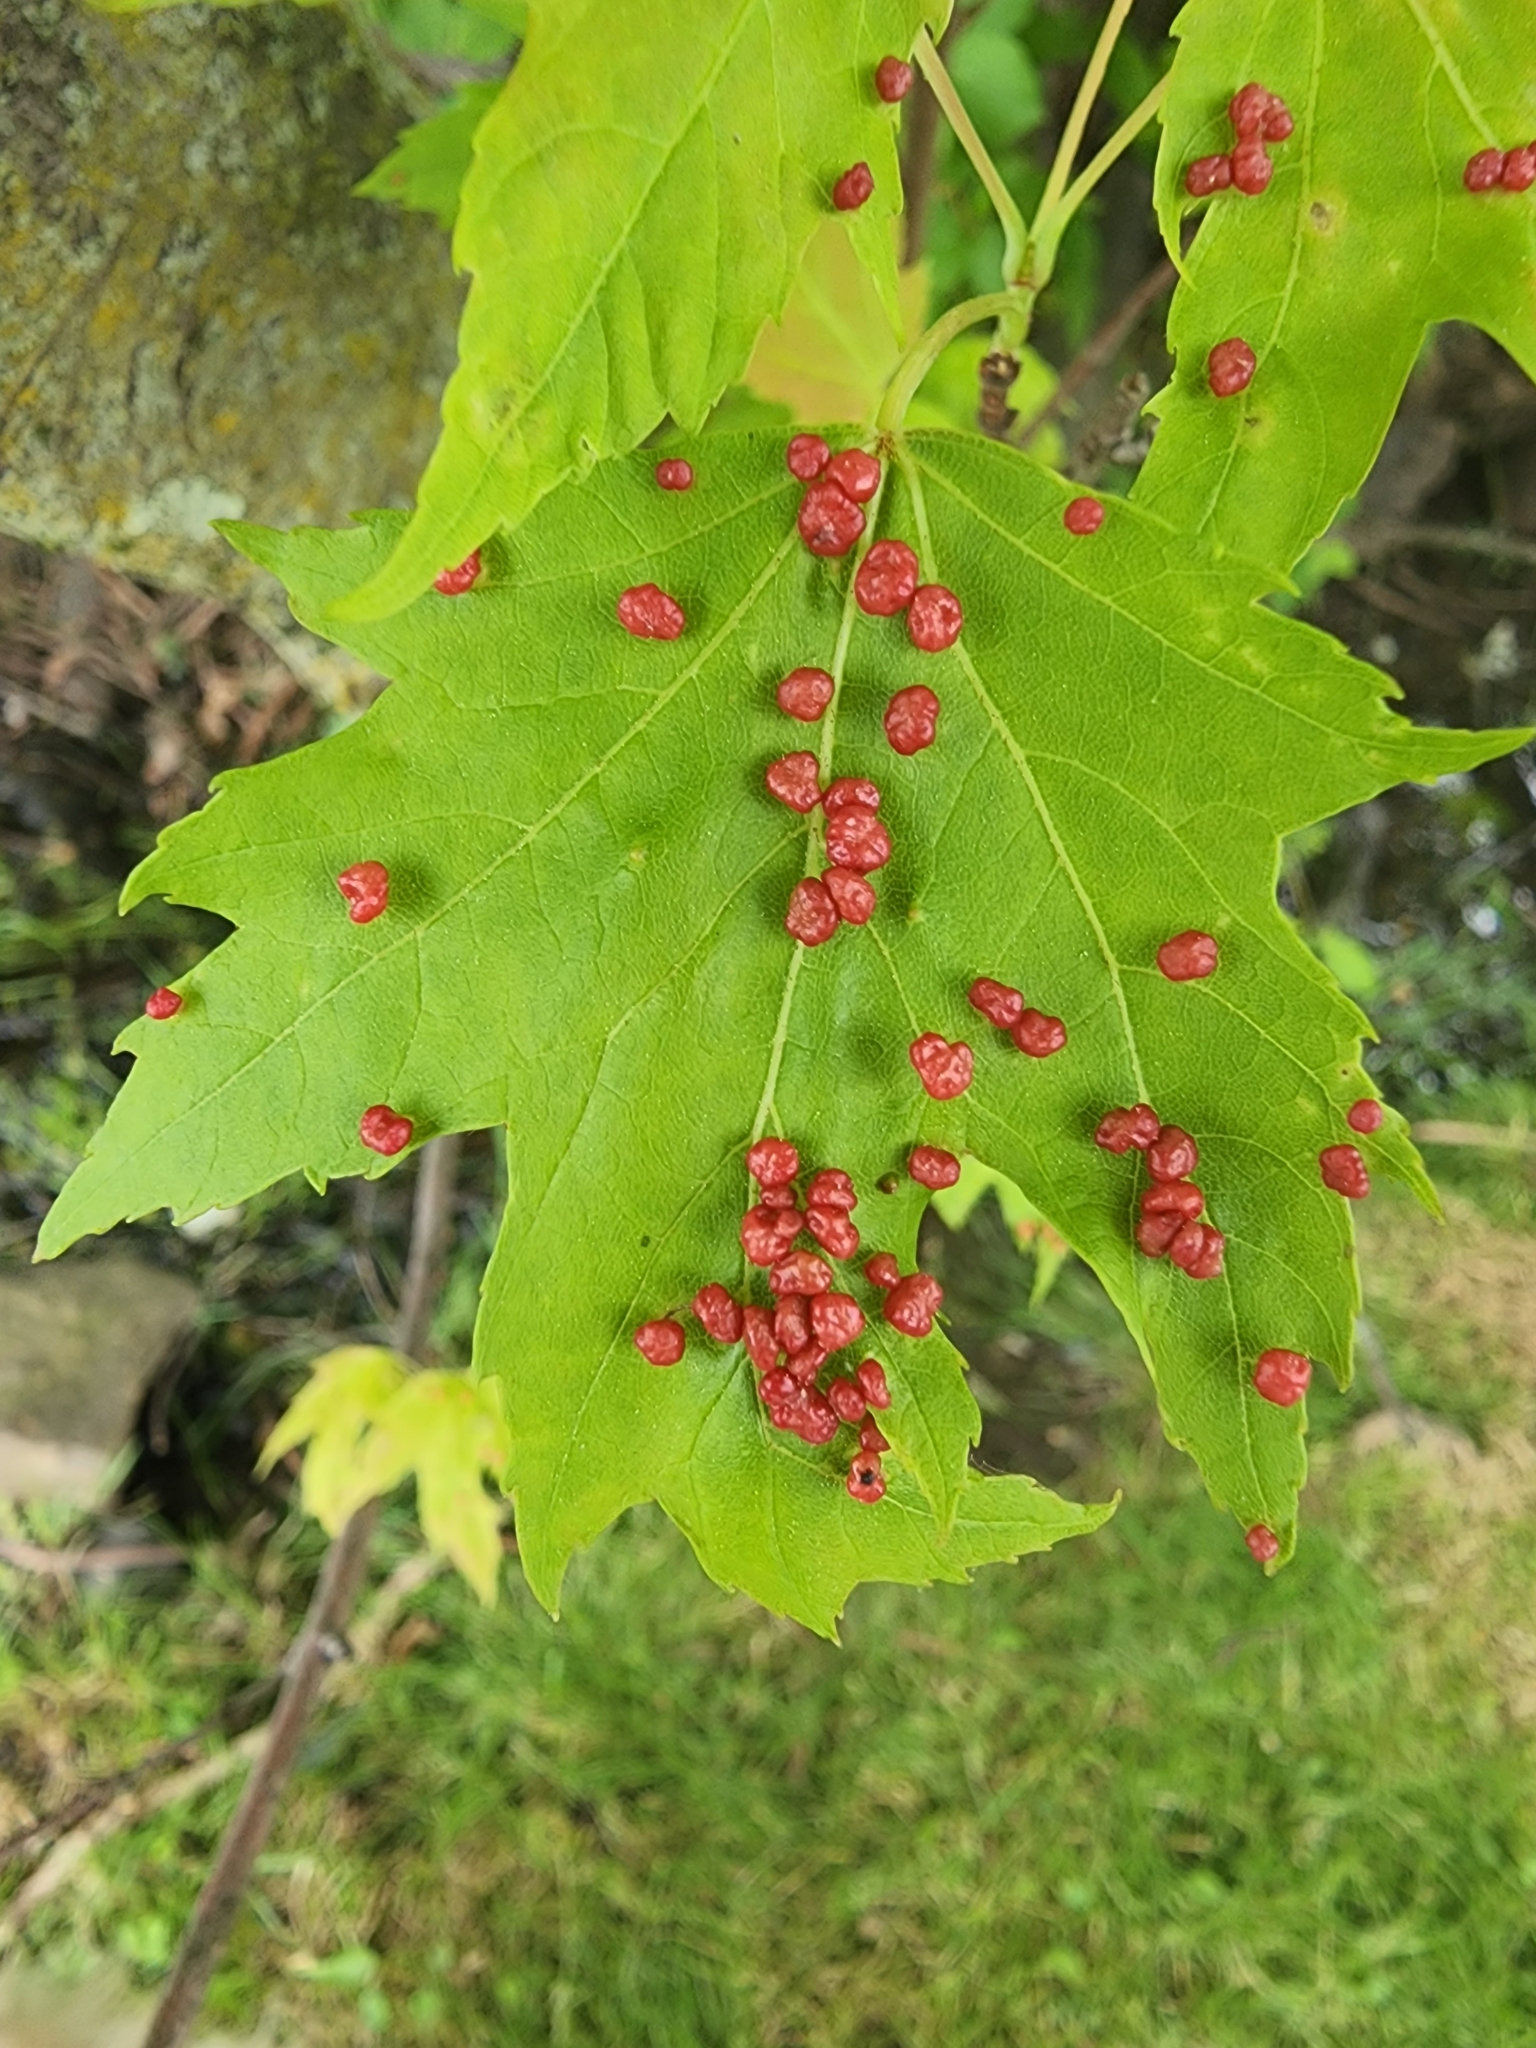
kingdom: Animalia
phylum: Arthropoda
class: Arachnida
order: Trombidiformes
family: Eriophyidae
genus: Vasates
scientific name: Vasates quadripedes
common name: Maple bladder gall mite
